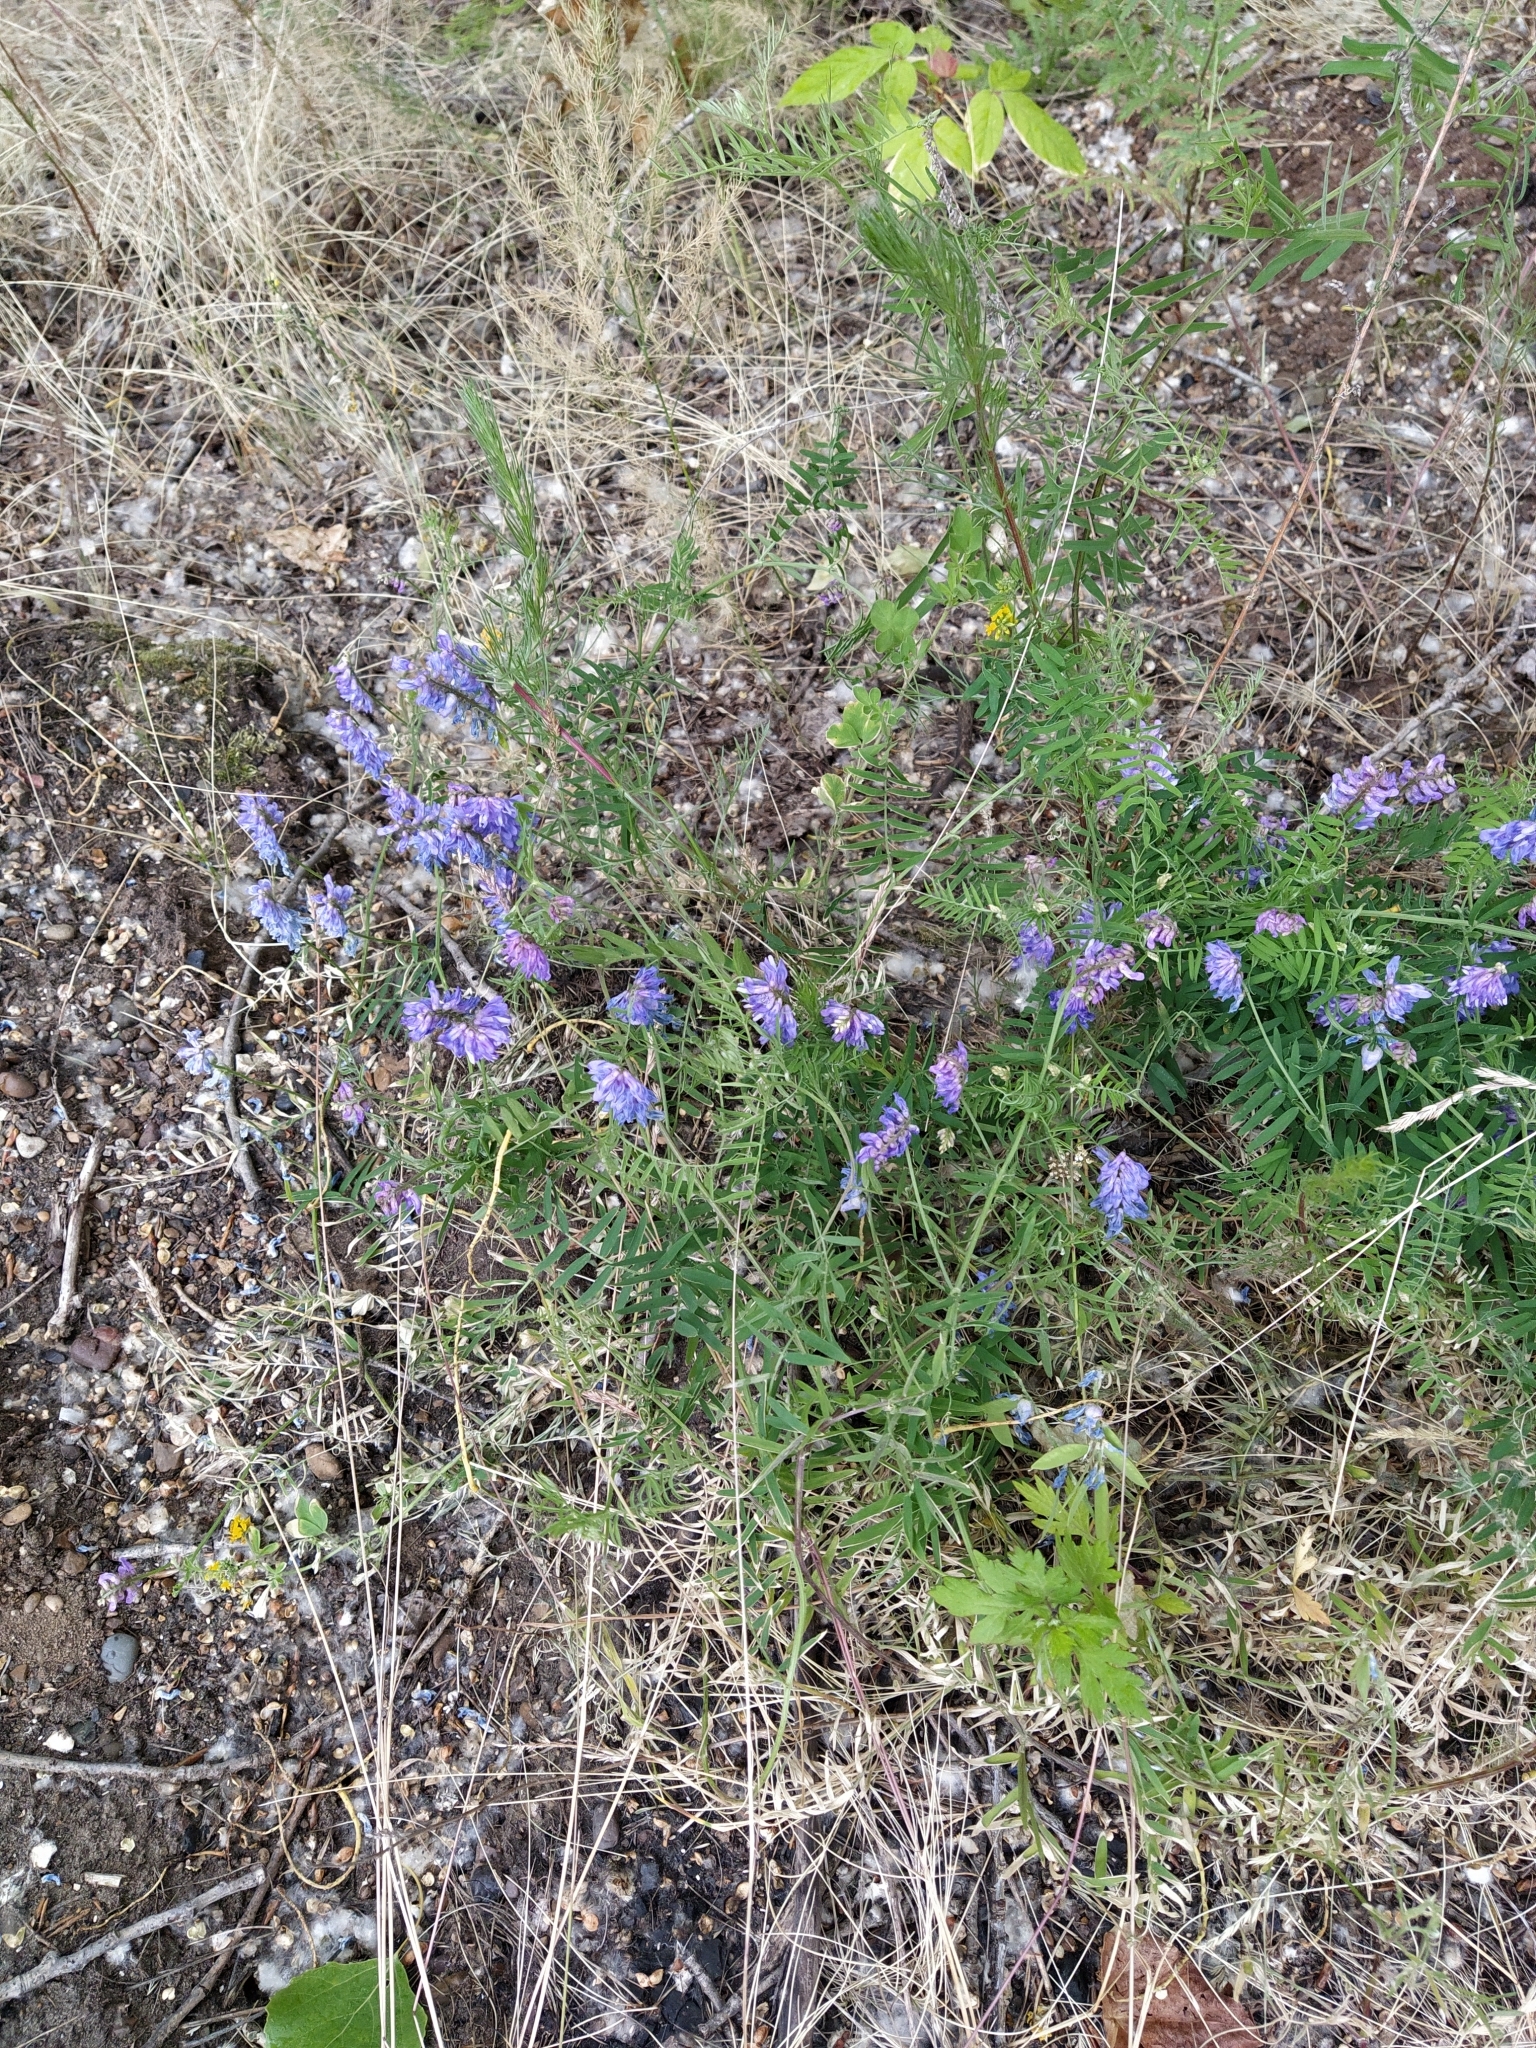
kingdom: Plantae
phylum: Tracheophyta
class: Magnoliopsida
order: Fabales
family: Fabaceae
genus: Vicia
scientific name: Vicia cracca
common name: Bird vetch
